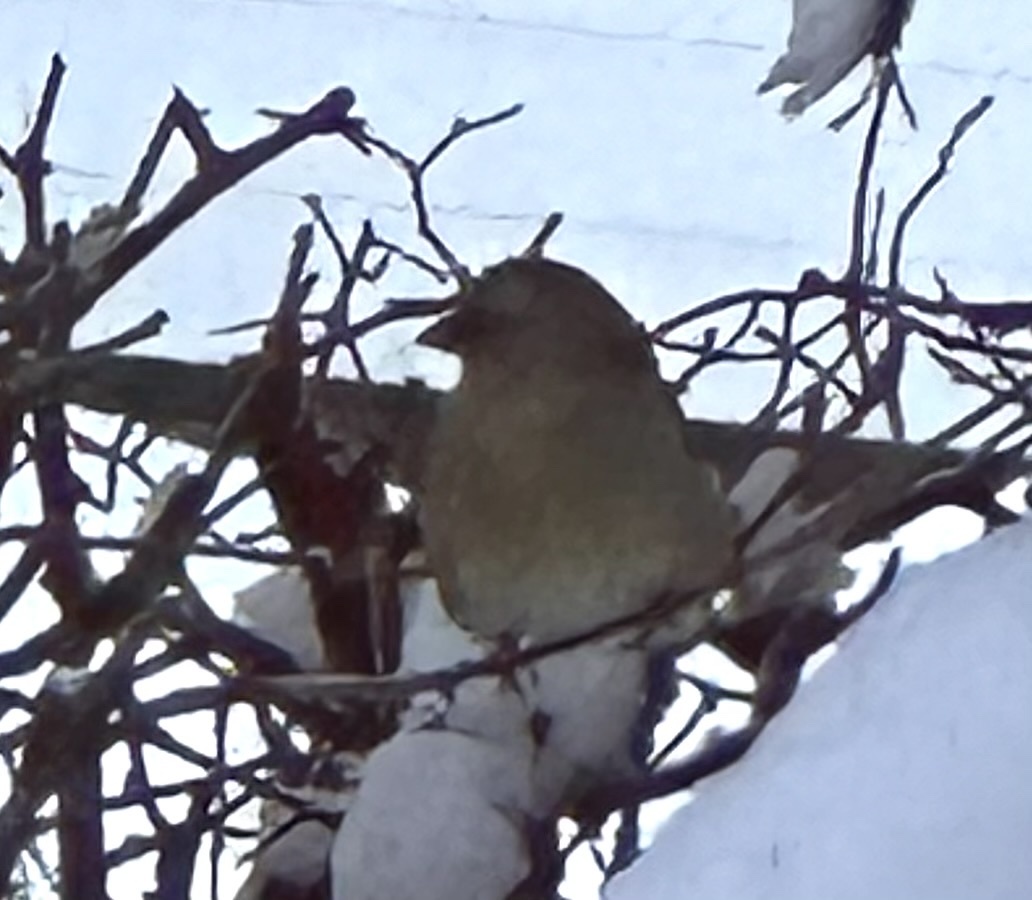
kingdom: Plantae
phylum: Tracheophyta
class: Liliopsida
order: Poales
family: Poaceae
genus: Chloris
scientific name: Chloris chloris
